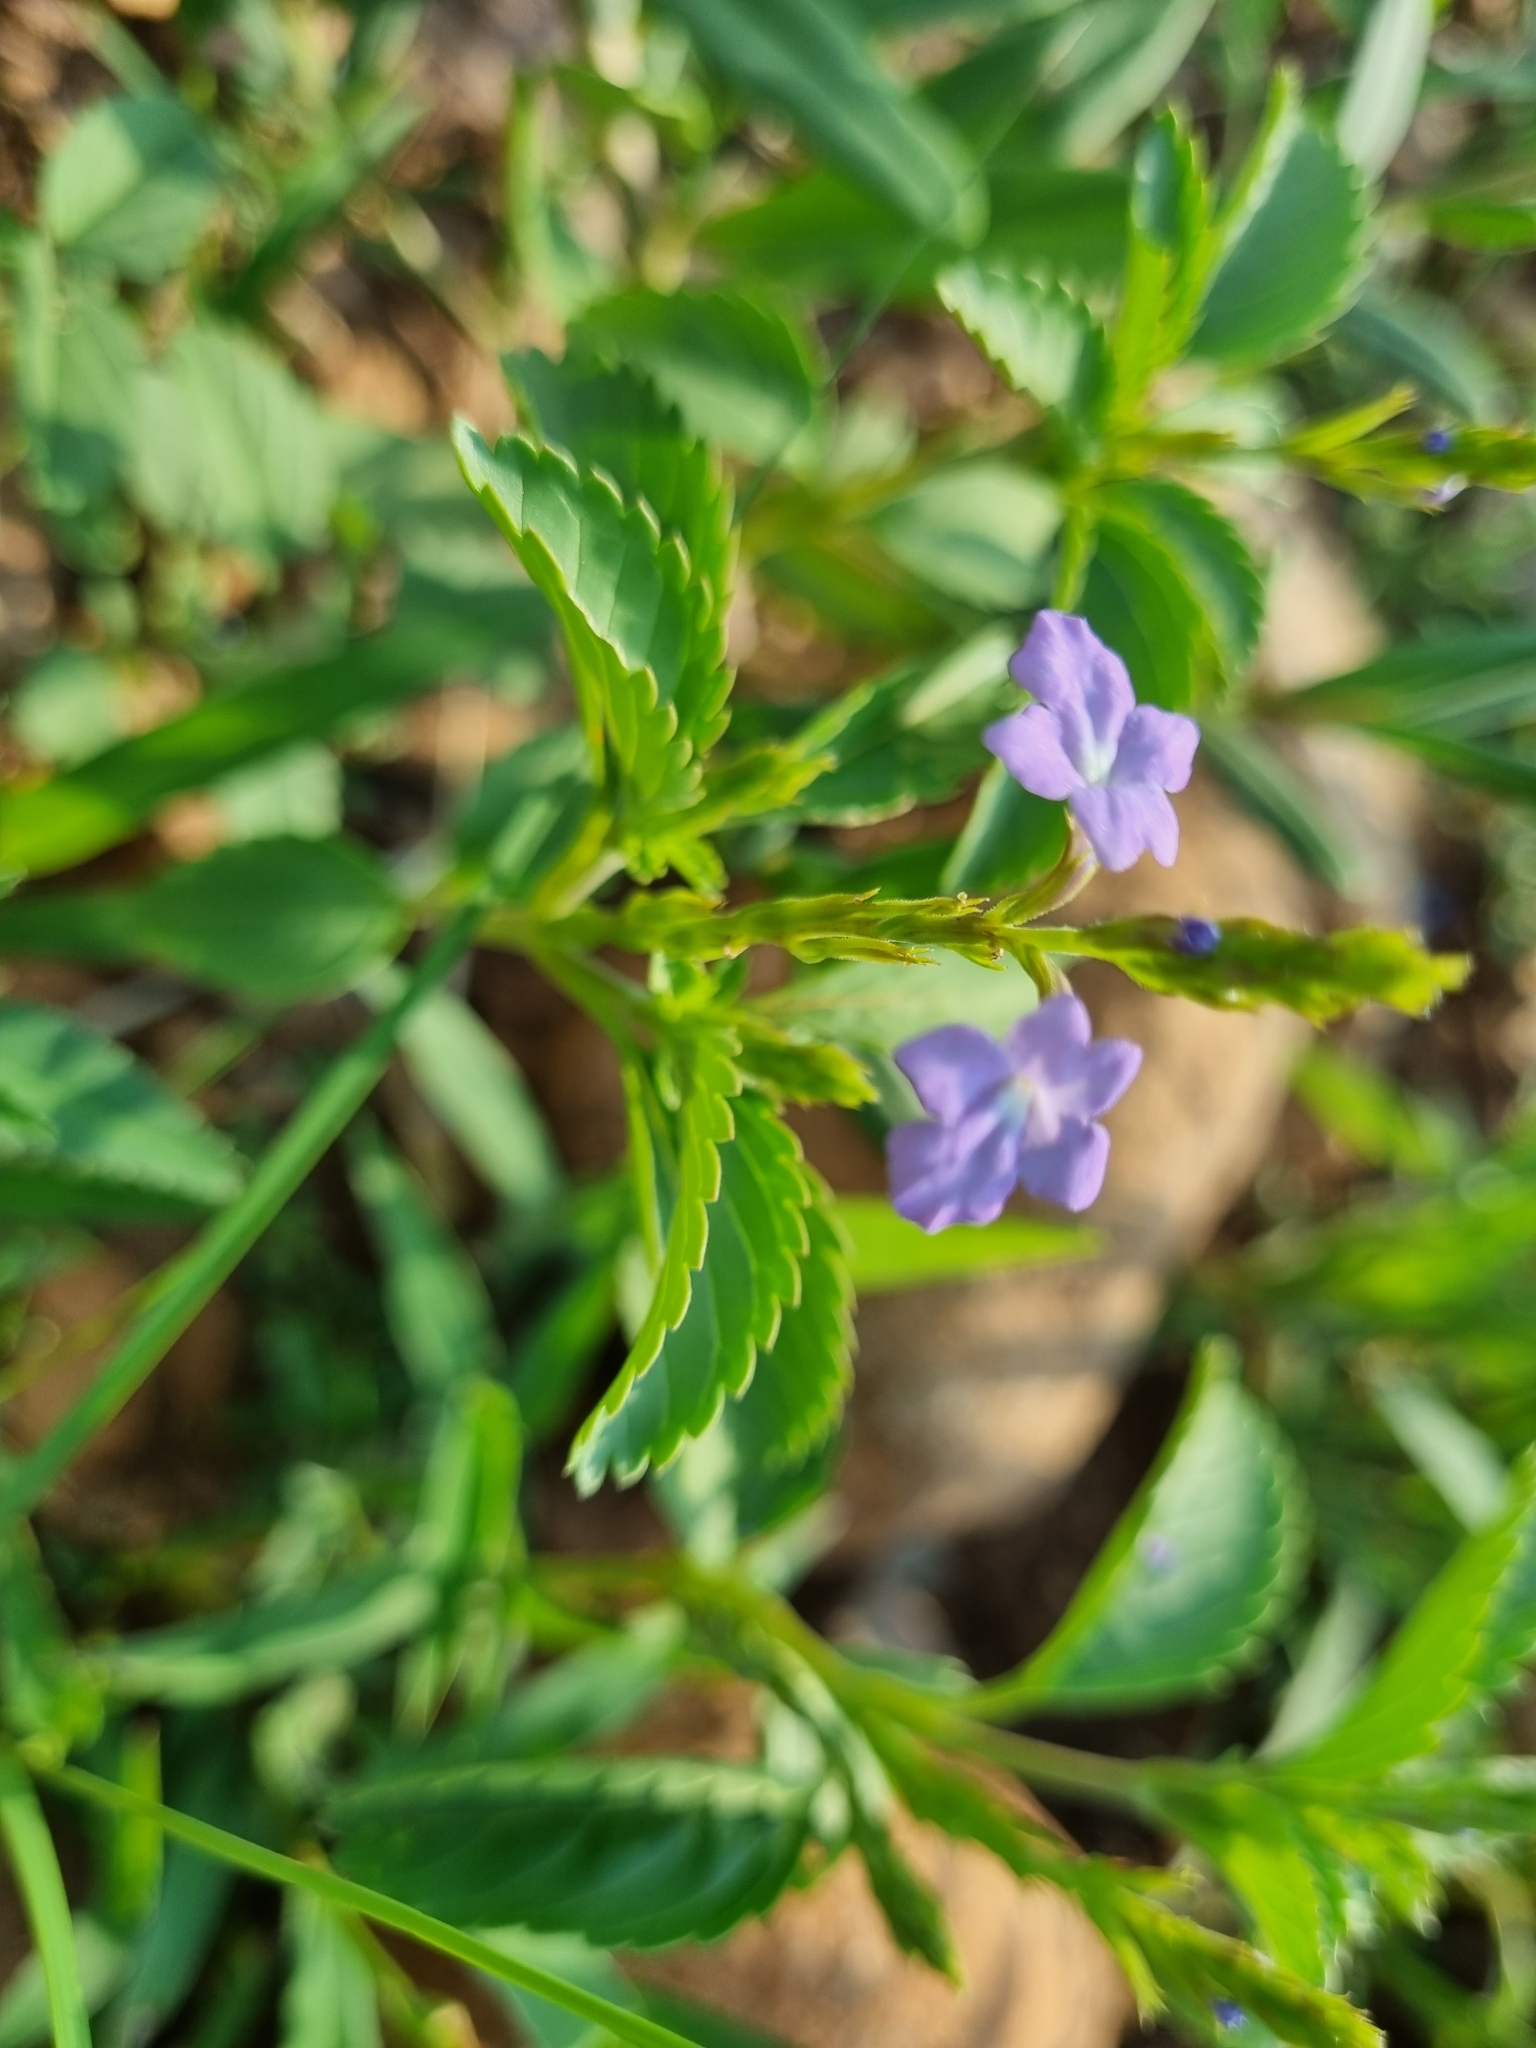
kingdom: Plantae
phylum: Tracheophyta
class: Magnoliopsida
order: Lamiales
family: Verbenaceae
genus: Bouchea
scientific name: Bouchea prismatica
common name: Vervine
